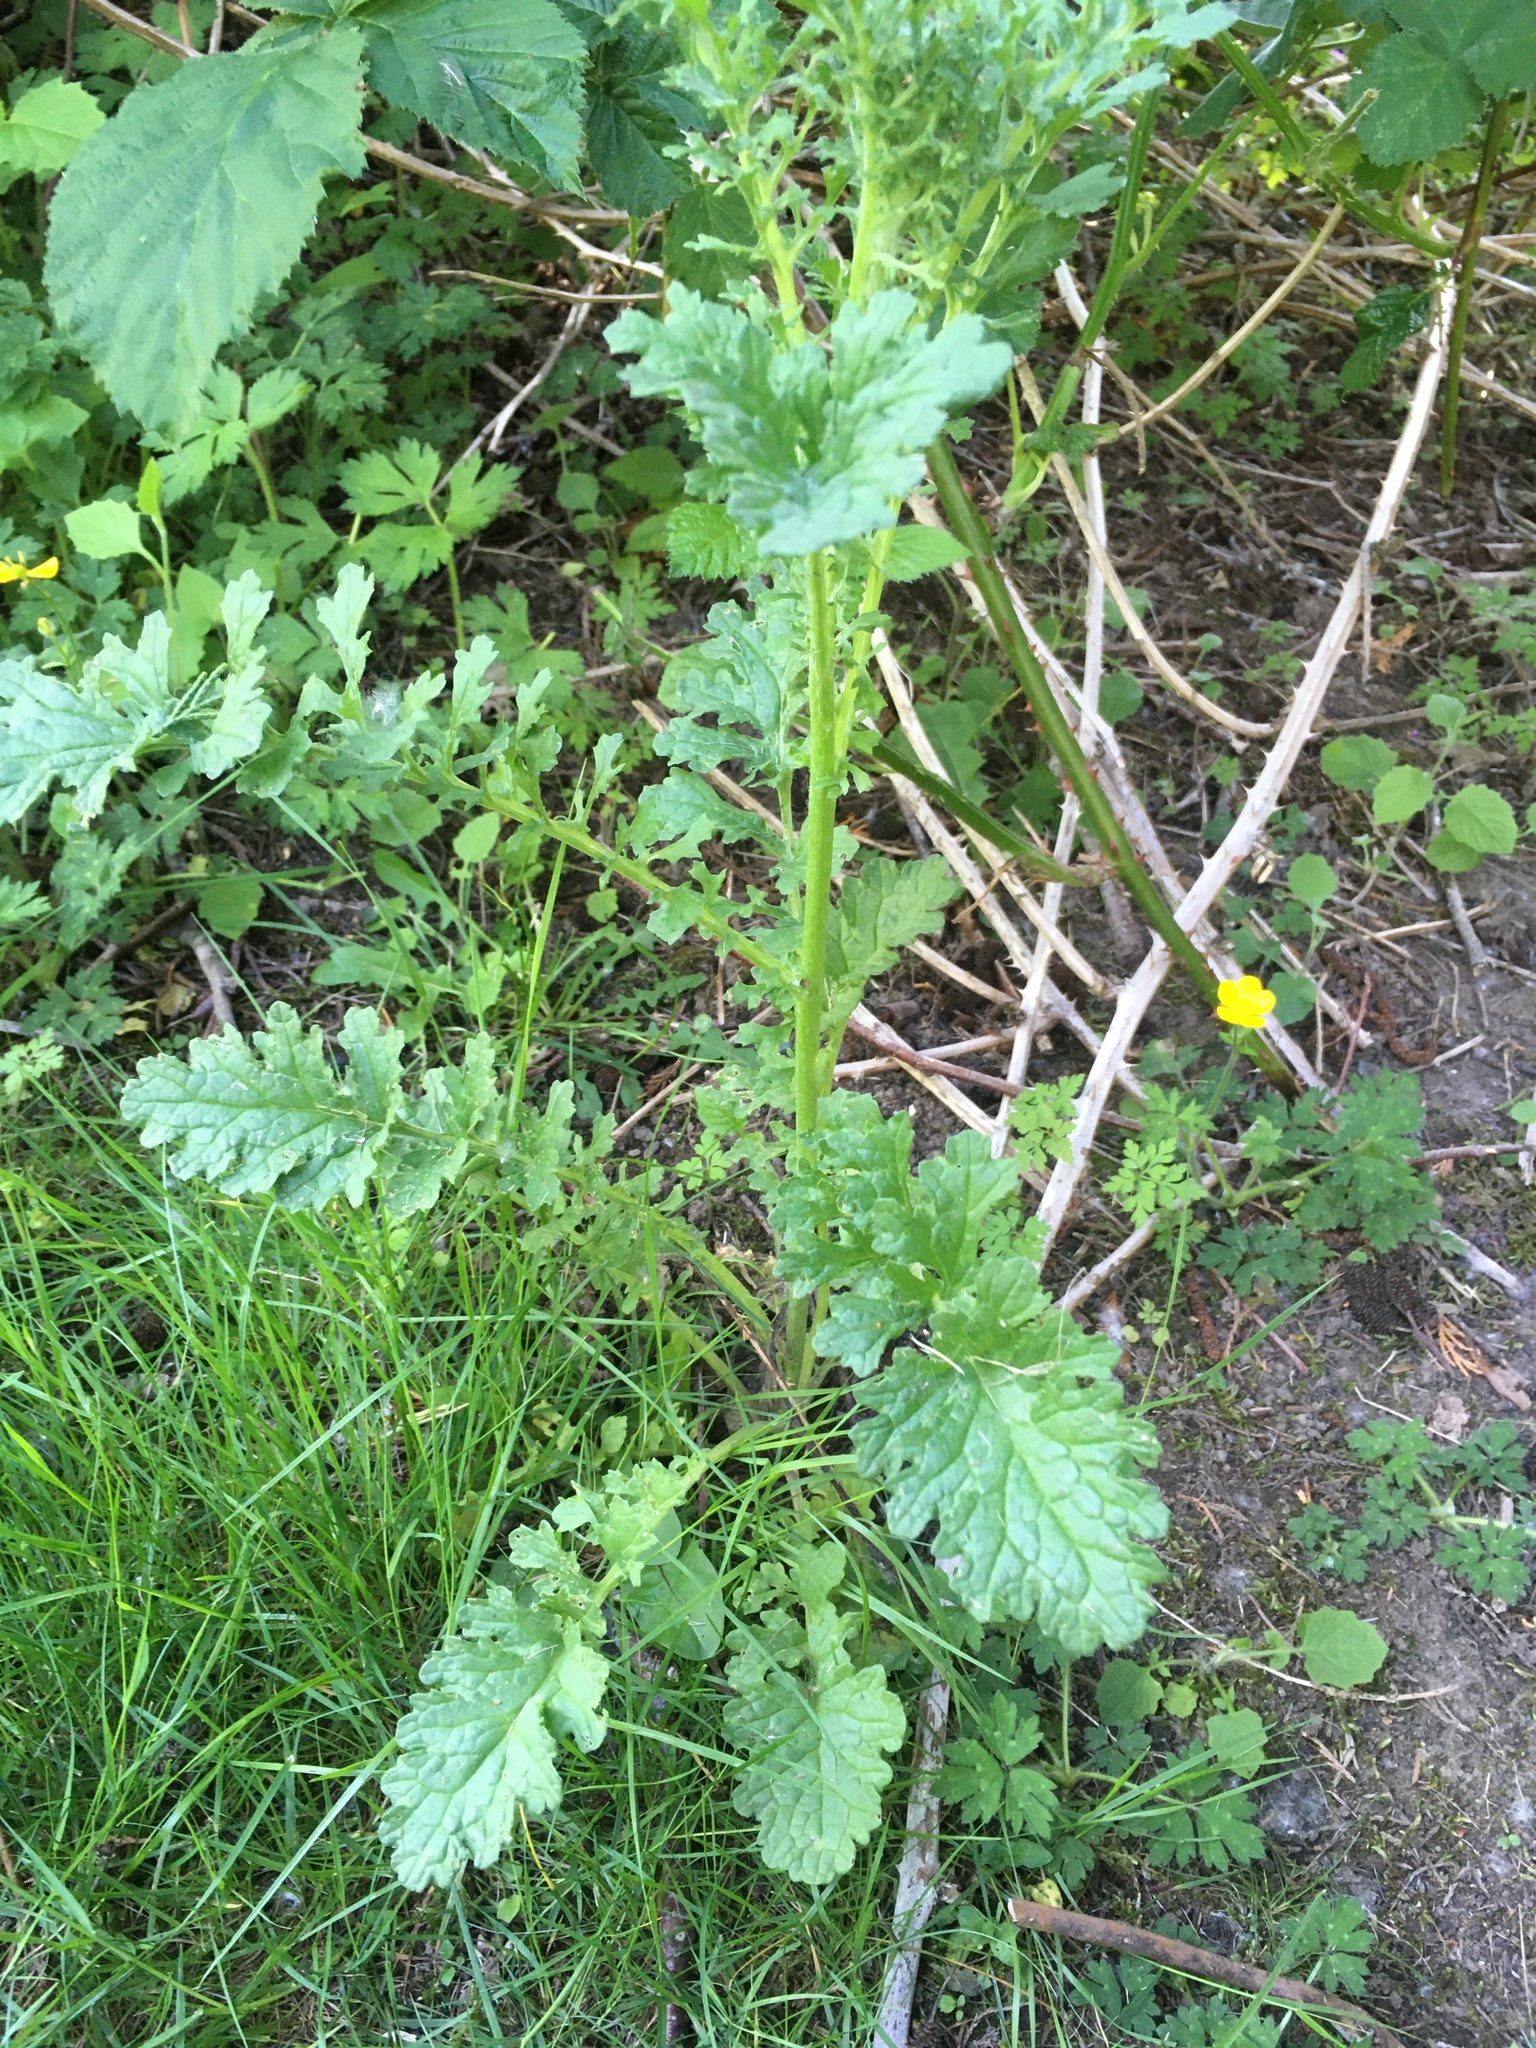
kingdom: Plantae
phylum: Tracheophyta
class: Magnoliopsida
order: Asterales
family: Asteraceae
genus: Jacobaea
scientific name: Jacobaea vulgaris
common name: Stinking willie
